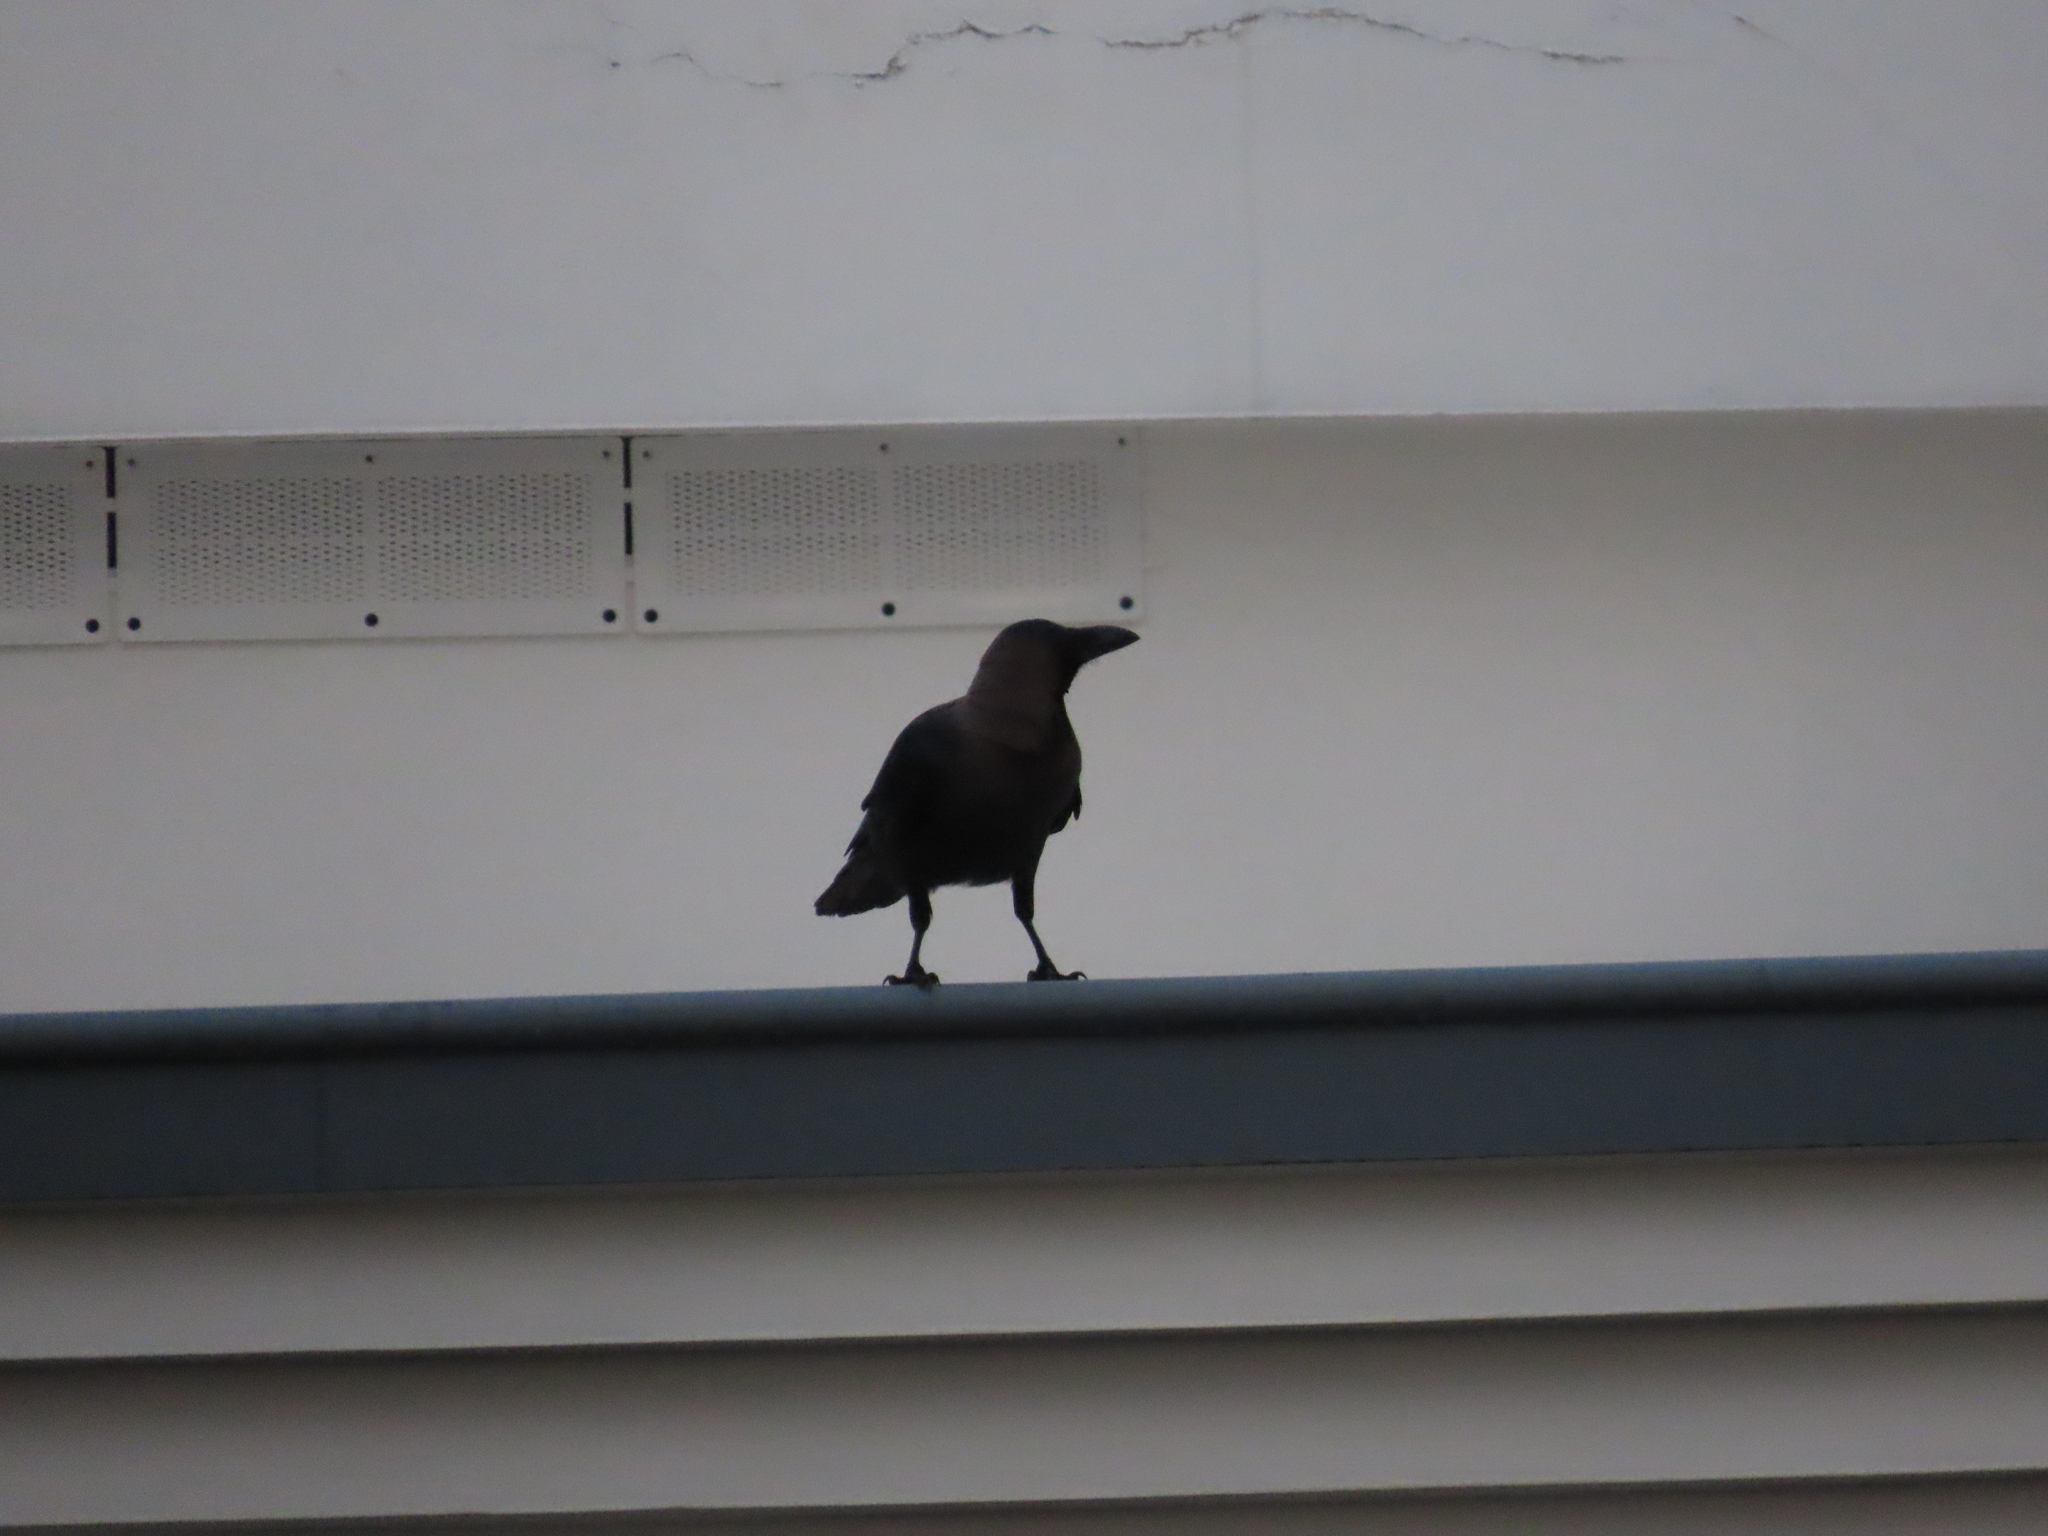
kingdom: Animalia
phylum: Chordata
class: Aves
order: Passeriformes
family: Corvidae
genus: Corvus
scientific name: Corvus splendens
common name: House crow
